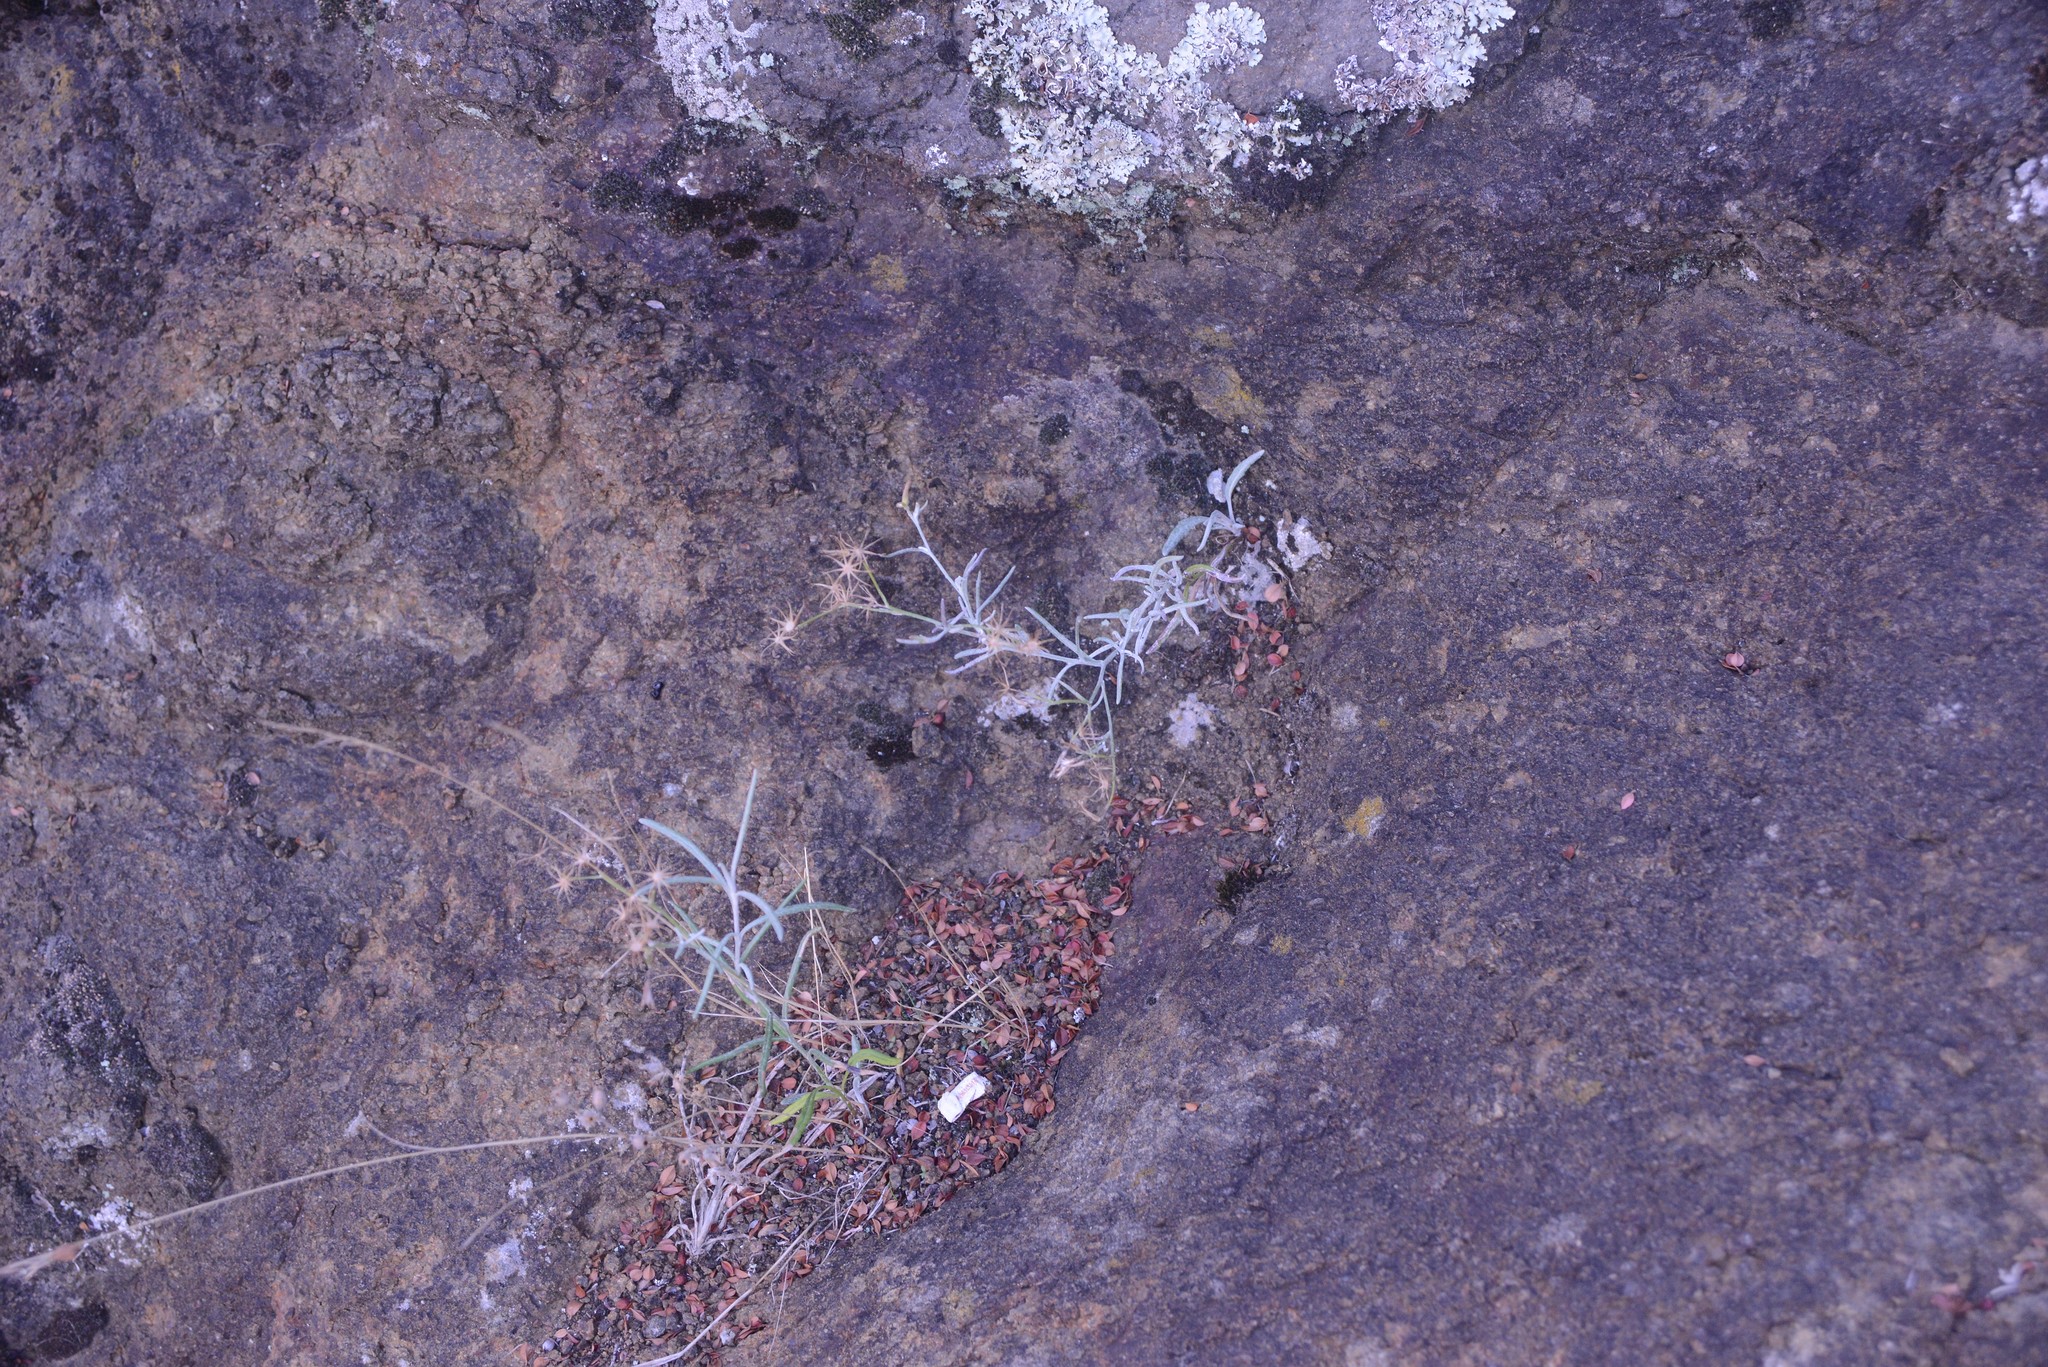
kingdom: Plantae
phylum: Tracheophyta
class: Magnoliopsida
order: Asterales
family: Asteraceae
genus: Senecio
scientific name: Senecio quadridentatus
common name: Cotton fireweed
